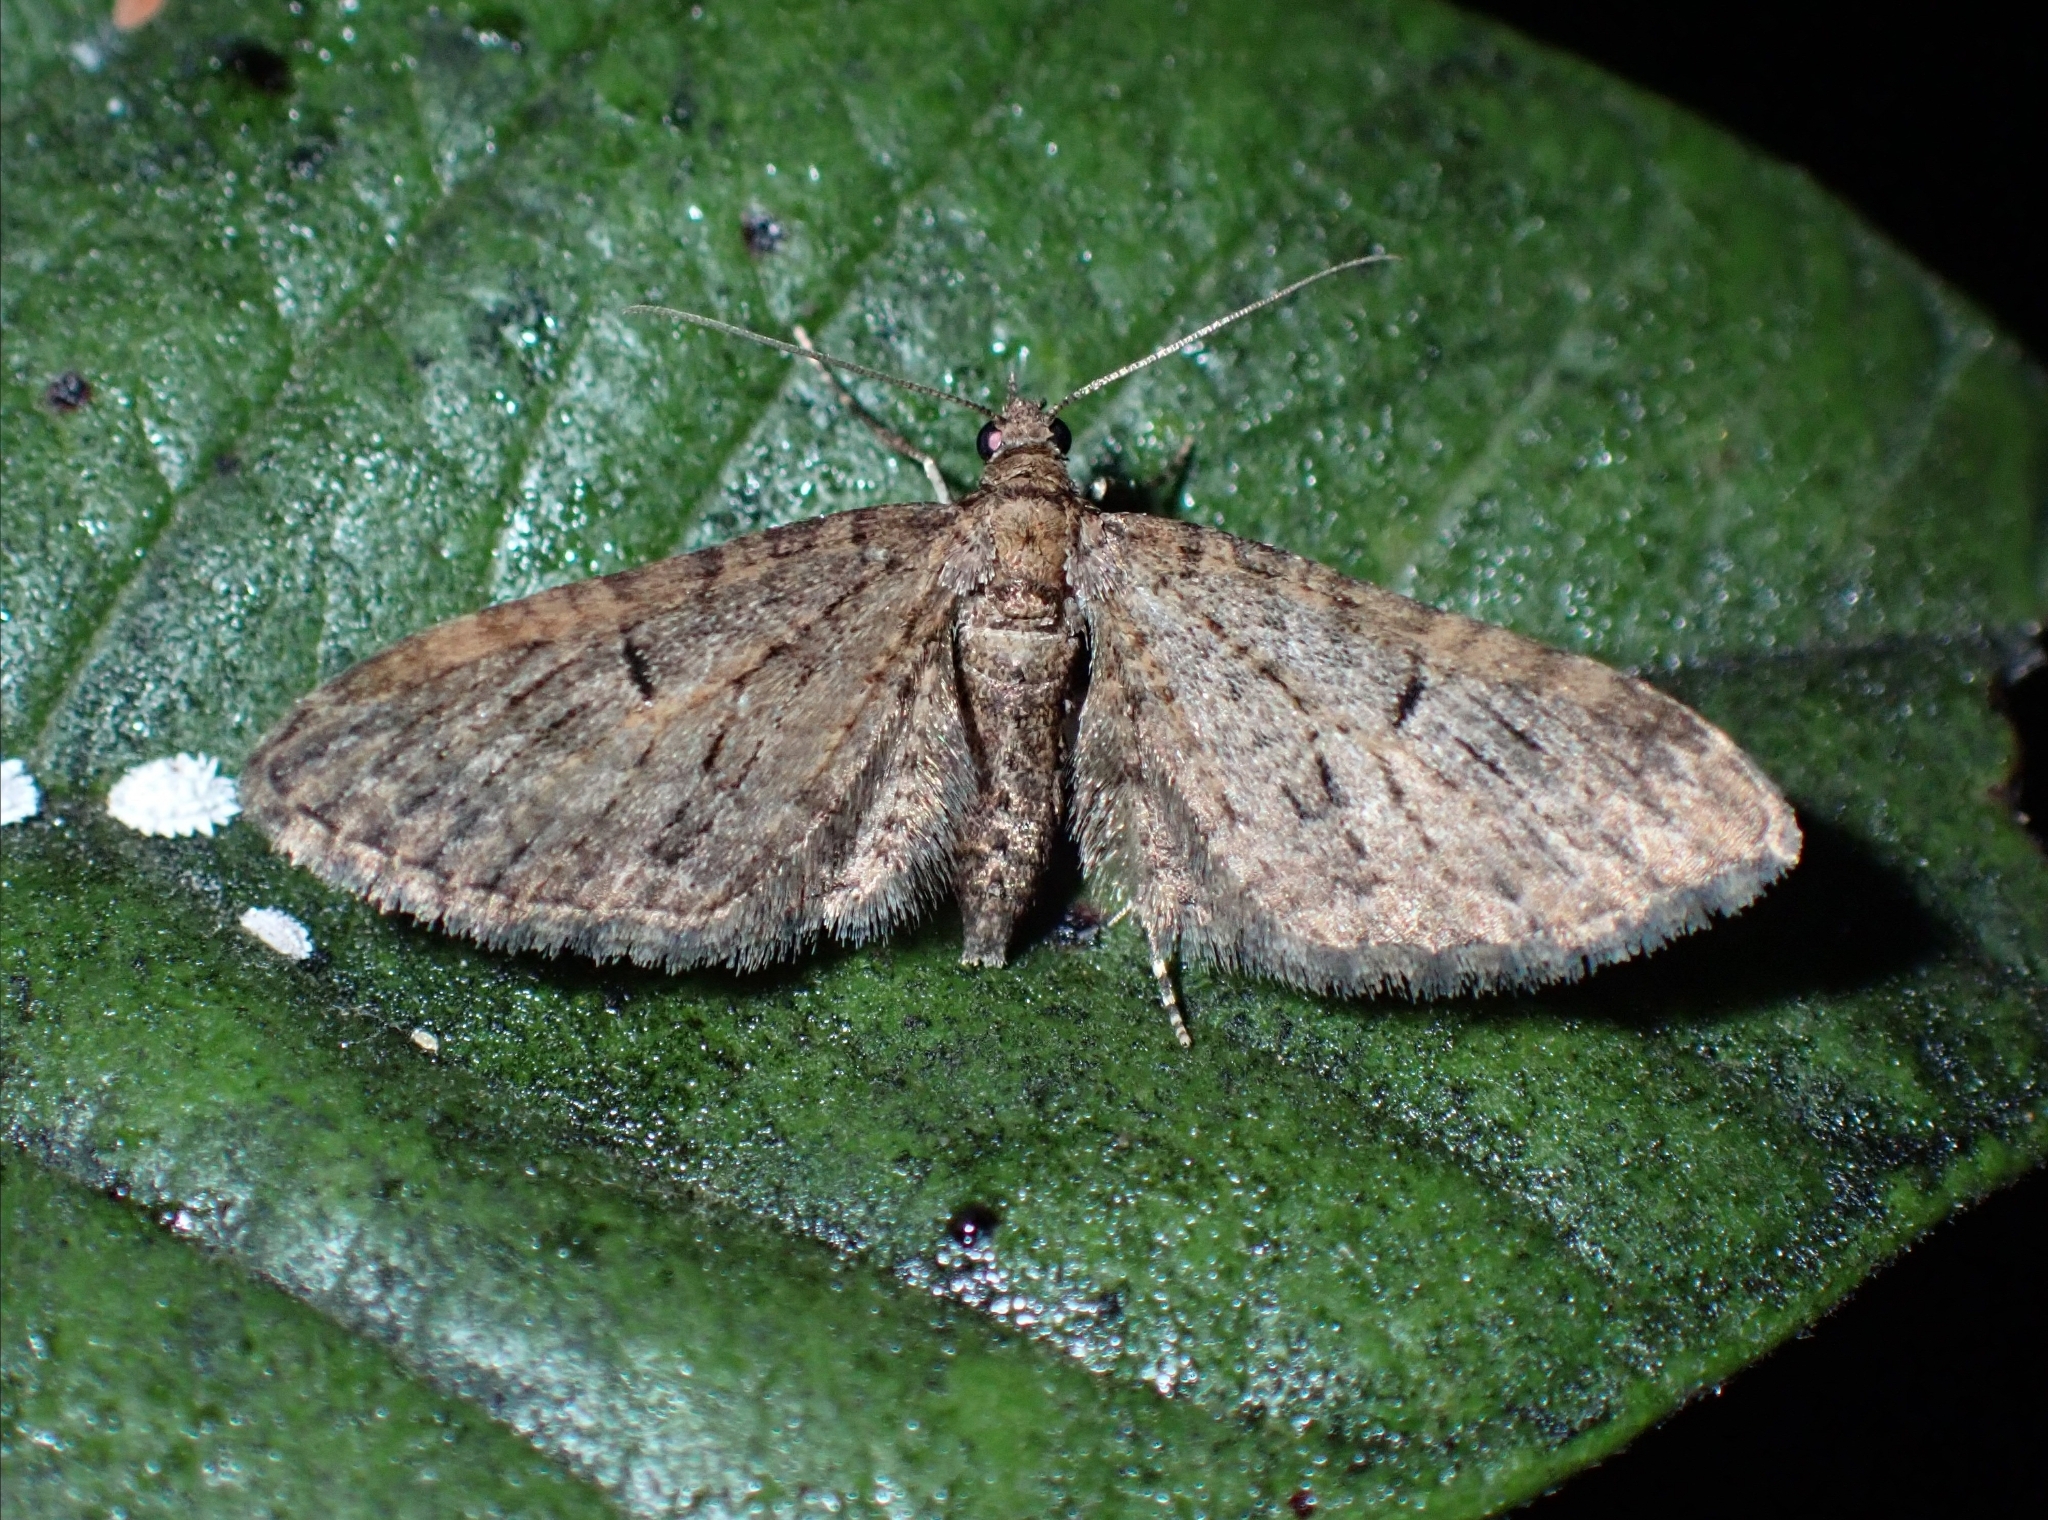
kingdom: Animalia
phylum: Arthropoda
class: Insecta
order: Lepidoptera
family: Geometridae
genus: Eupithecia
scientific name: Eupithecia tenerifensis
